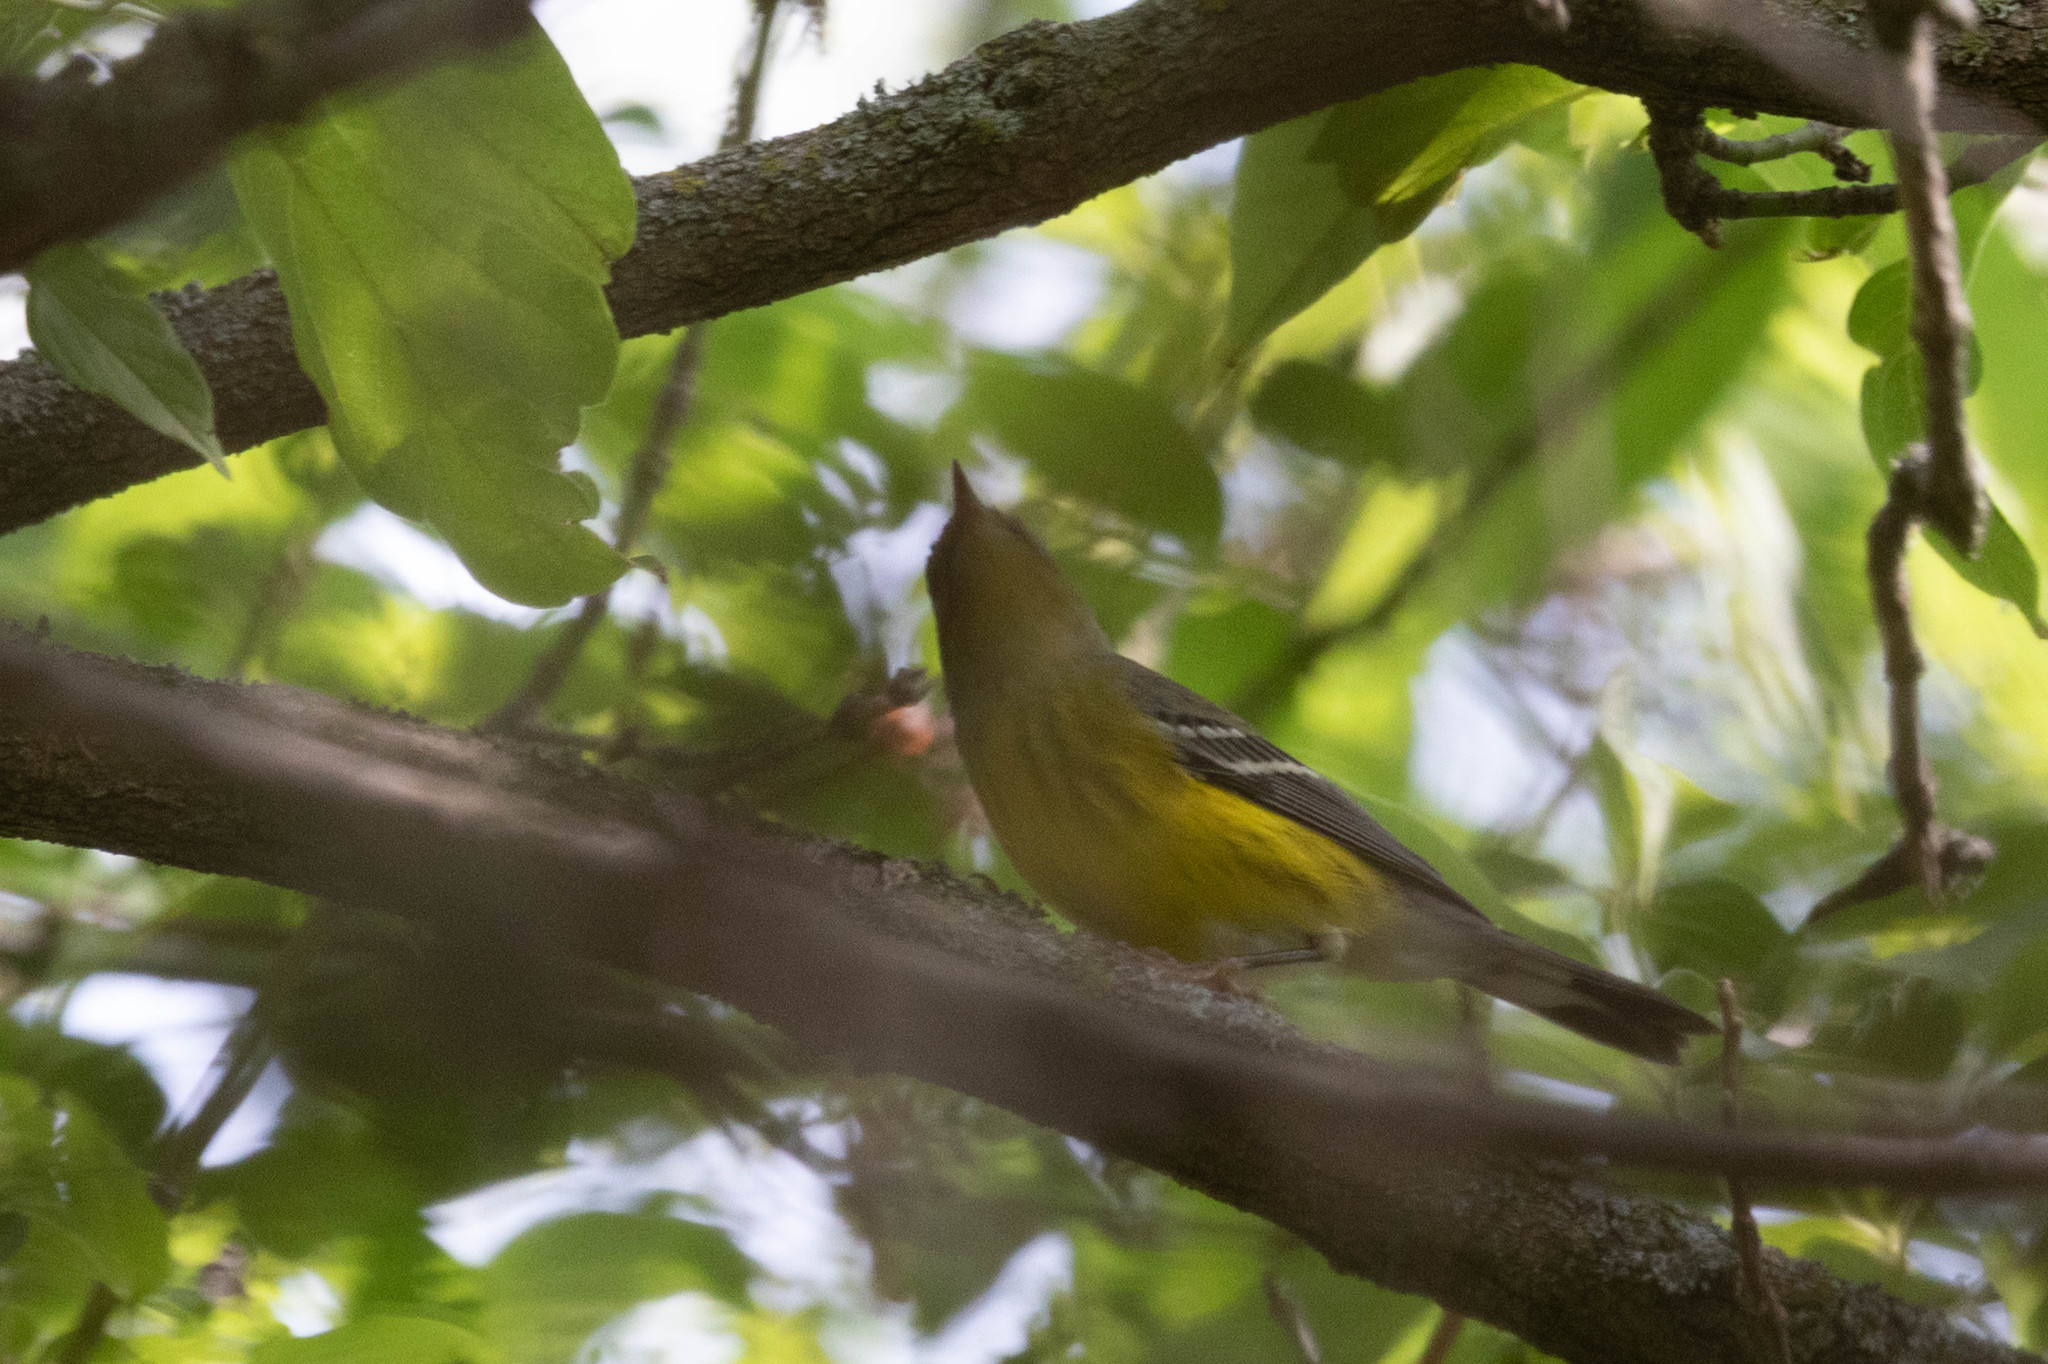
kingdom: Animalia
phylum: Chordata
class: Aves
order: Passeriformes
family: Parulidae
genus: Setophaga
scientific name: Setophaga magnolia
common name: Magnolia warbler
